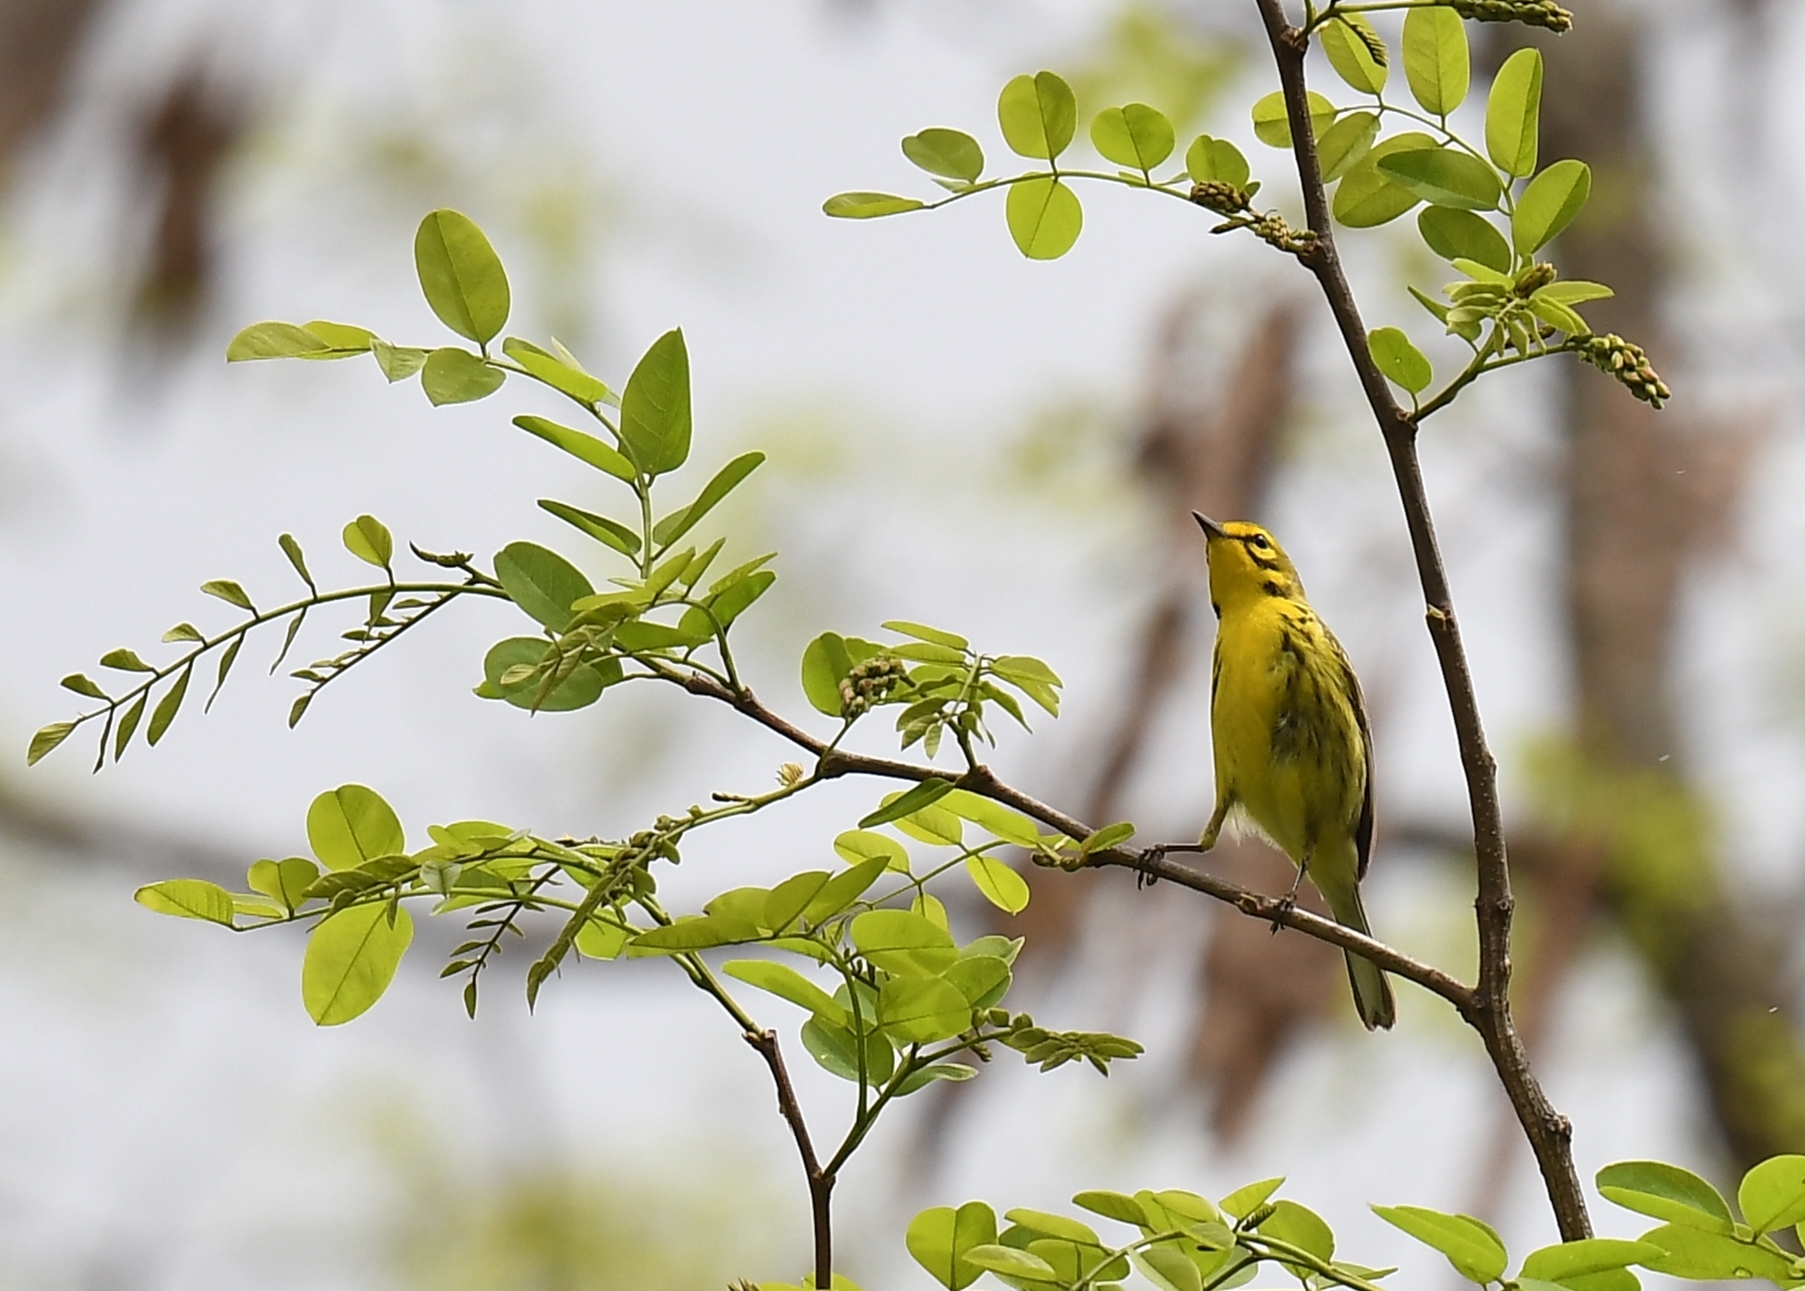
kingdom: Animalia
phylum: Chordata
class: Aves
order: Passeriformes
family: Parulidae
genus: Setophaga
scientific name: Setophaga discolor
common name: Prairie warbler
